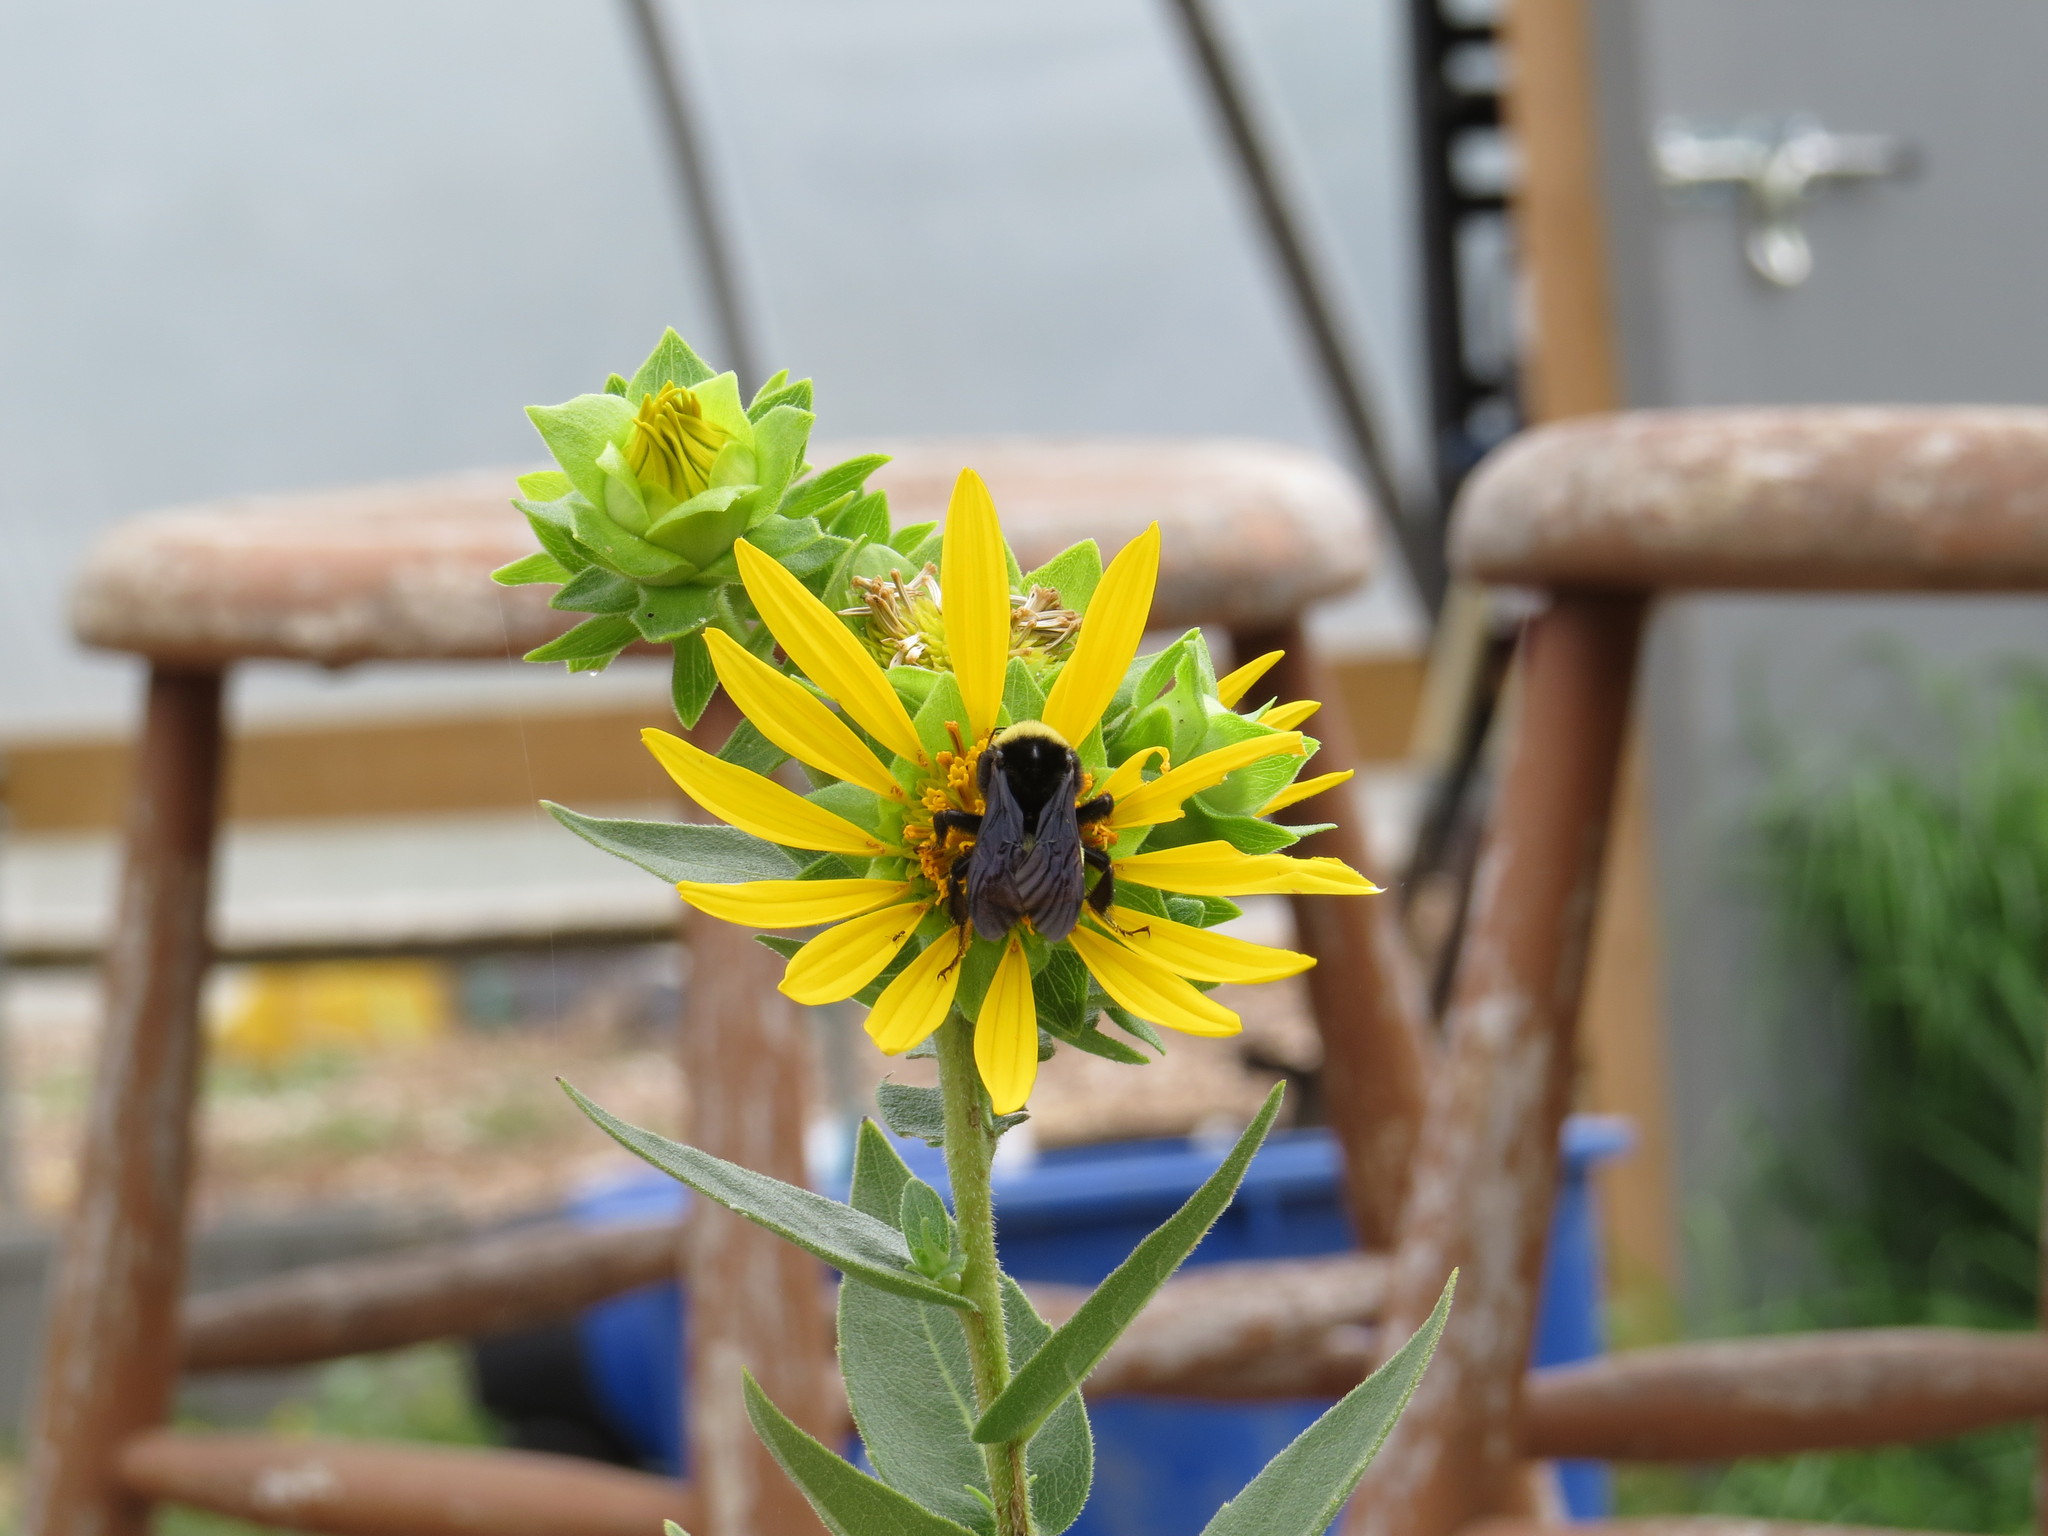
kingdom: Animalia
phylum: Arthropoda
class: Insecta
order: Hymenoptera
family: Apidae
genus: Bombus
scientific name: Bombus pensylvanicus
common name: Bumble bee
